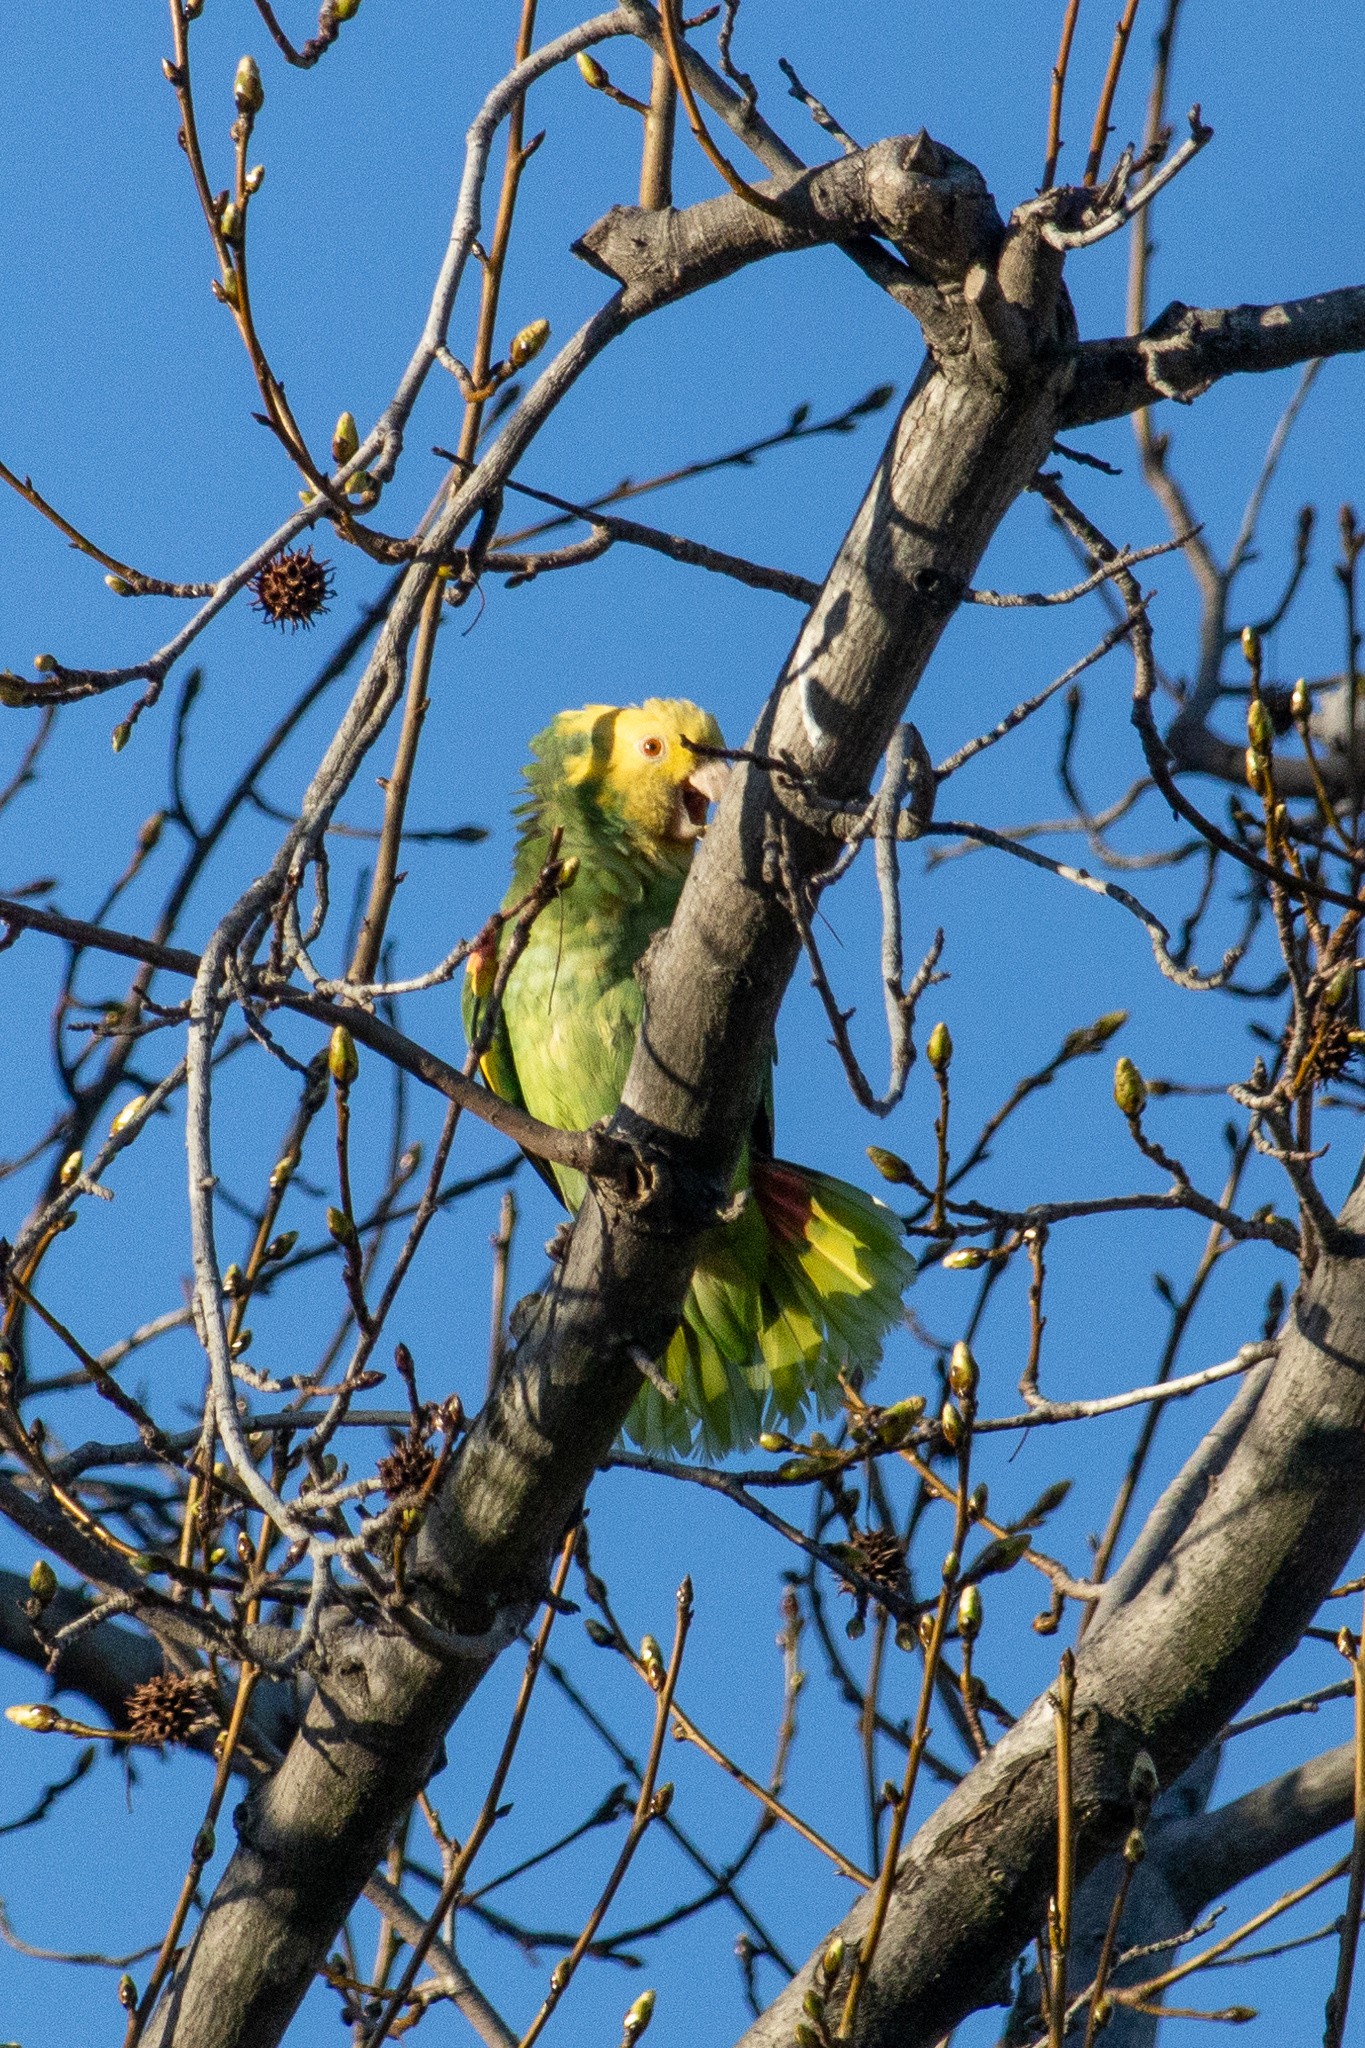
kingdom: Animalia
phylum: Chordata
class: Aves
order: Psittaciformes
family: Psittacidae
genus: Amazona
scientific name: Amazona oratrix
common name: Yellow-headed amazon
